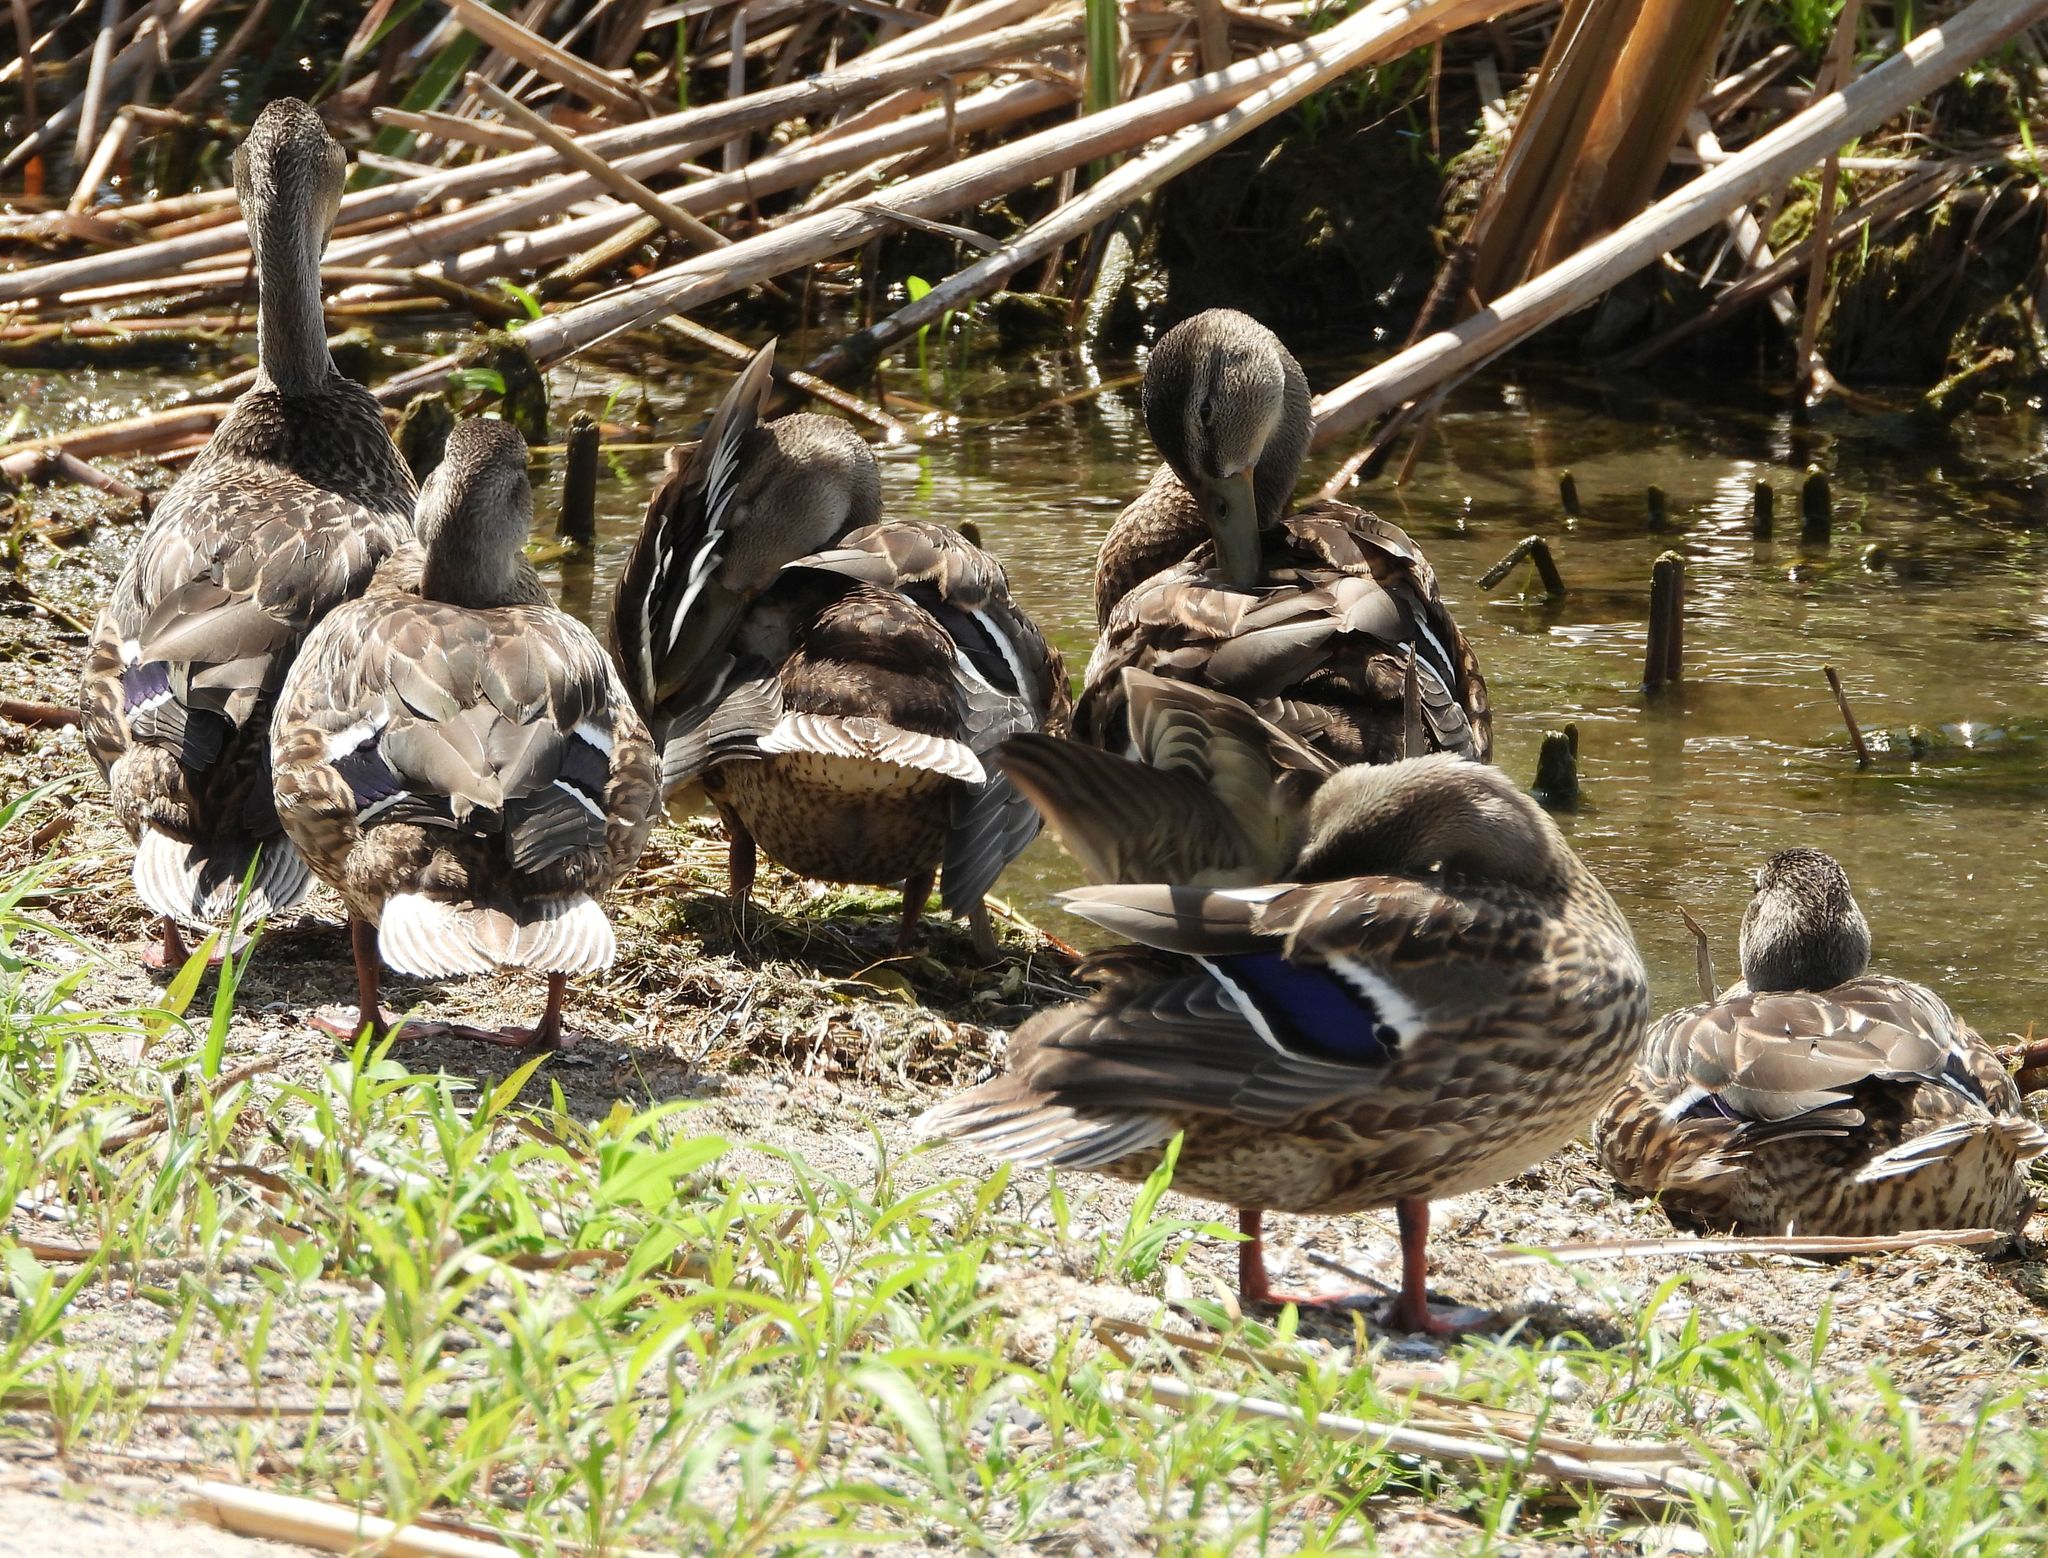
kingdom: Animalia
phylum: Chordata
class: Aves
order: Anseriformes
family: Anatidae
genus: Anas
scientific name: Anas platyrhynchos
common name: Mallard
